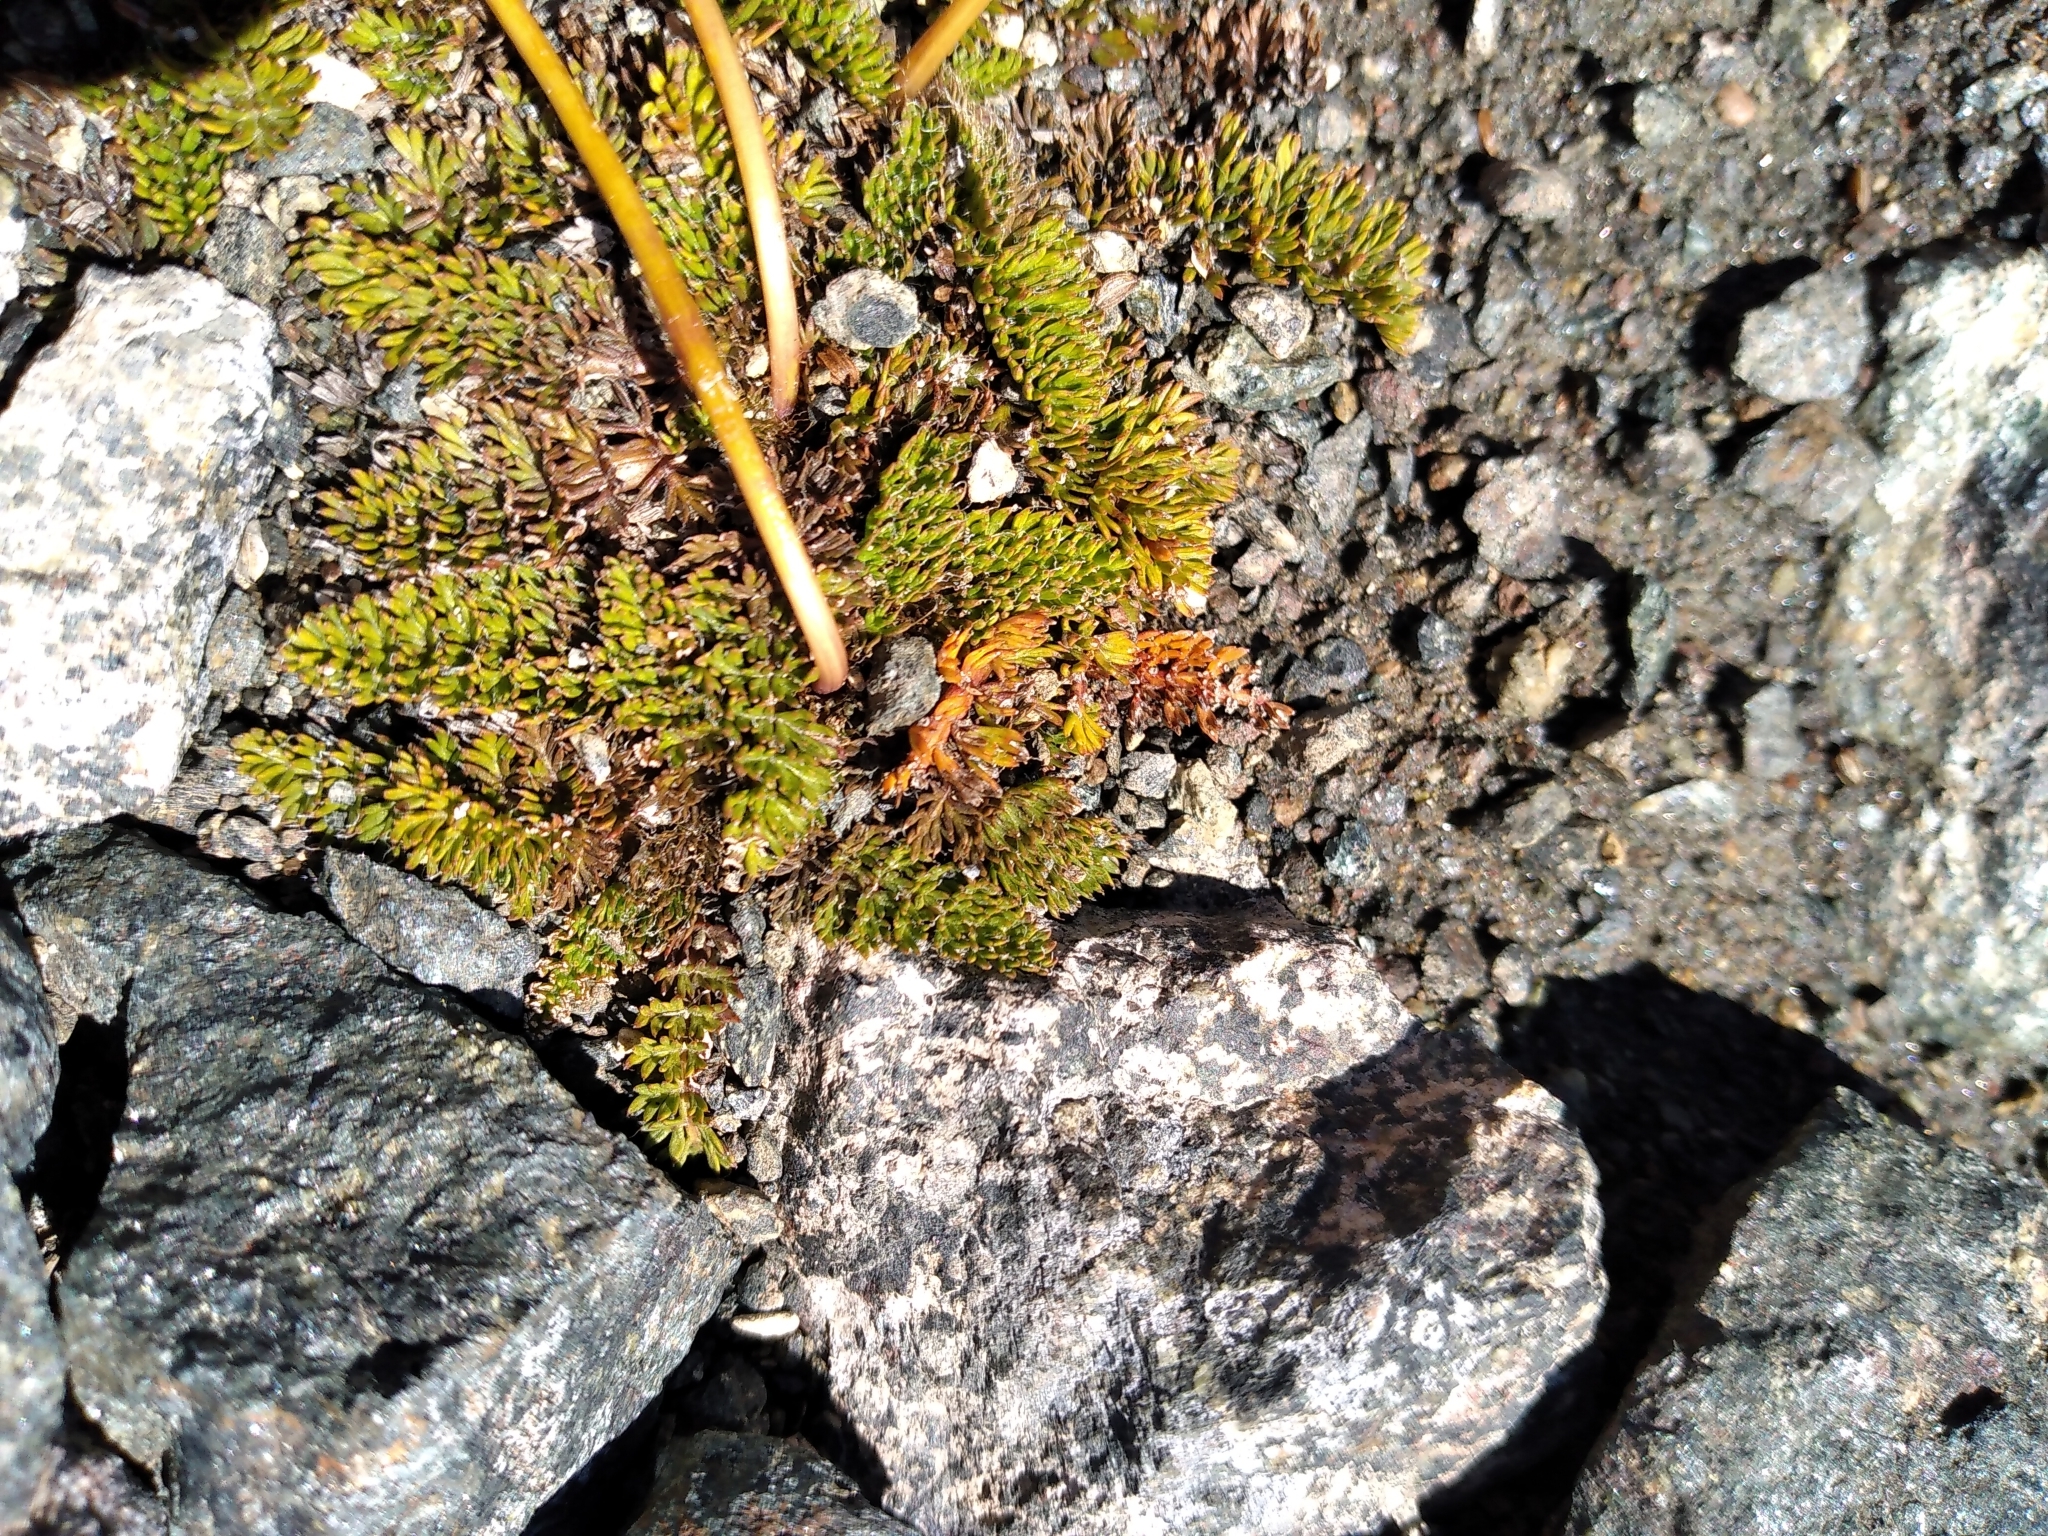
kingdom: Plantae
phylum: Tracheophyta
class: Magnoliopsida
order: Apiales
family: Apiaceae
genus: Anisotome
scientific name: Anisotome flexuosa
